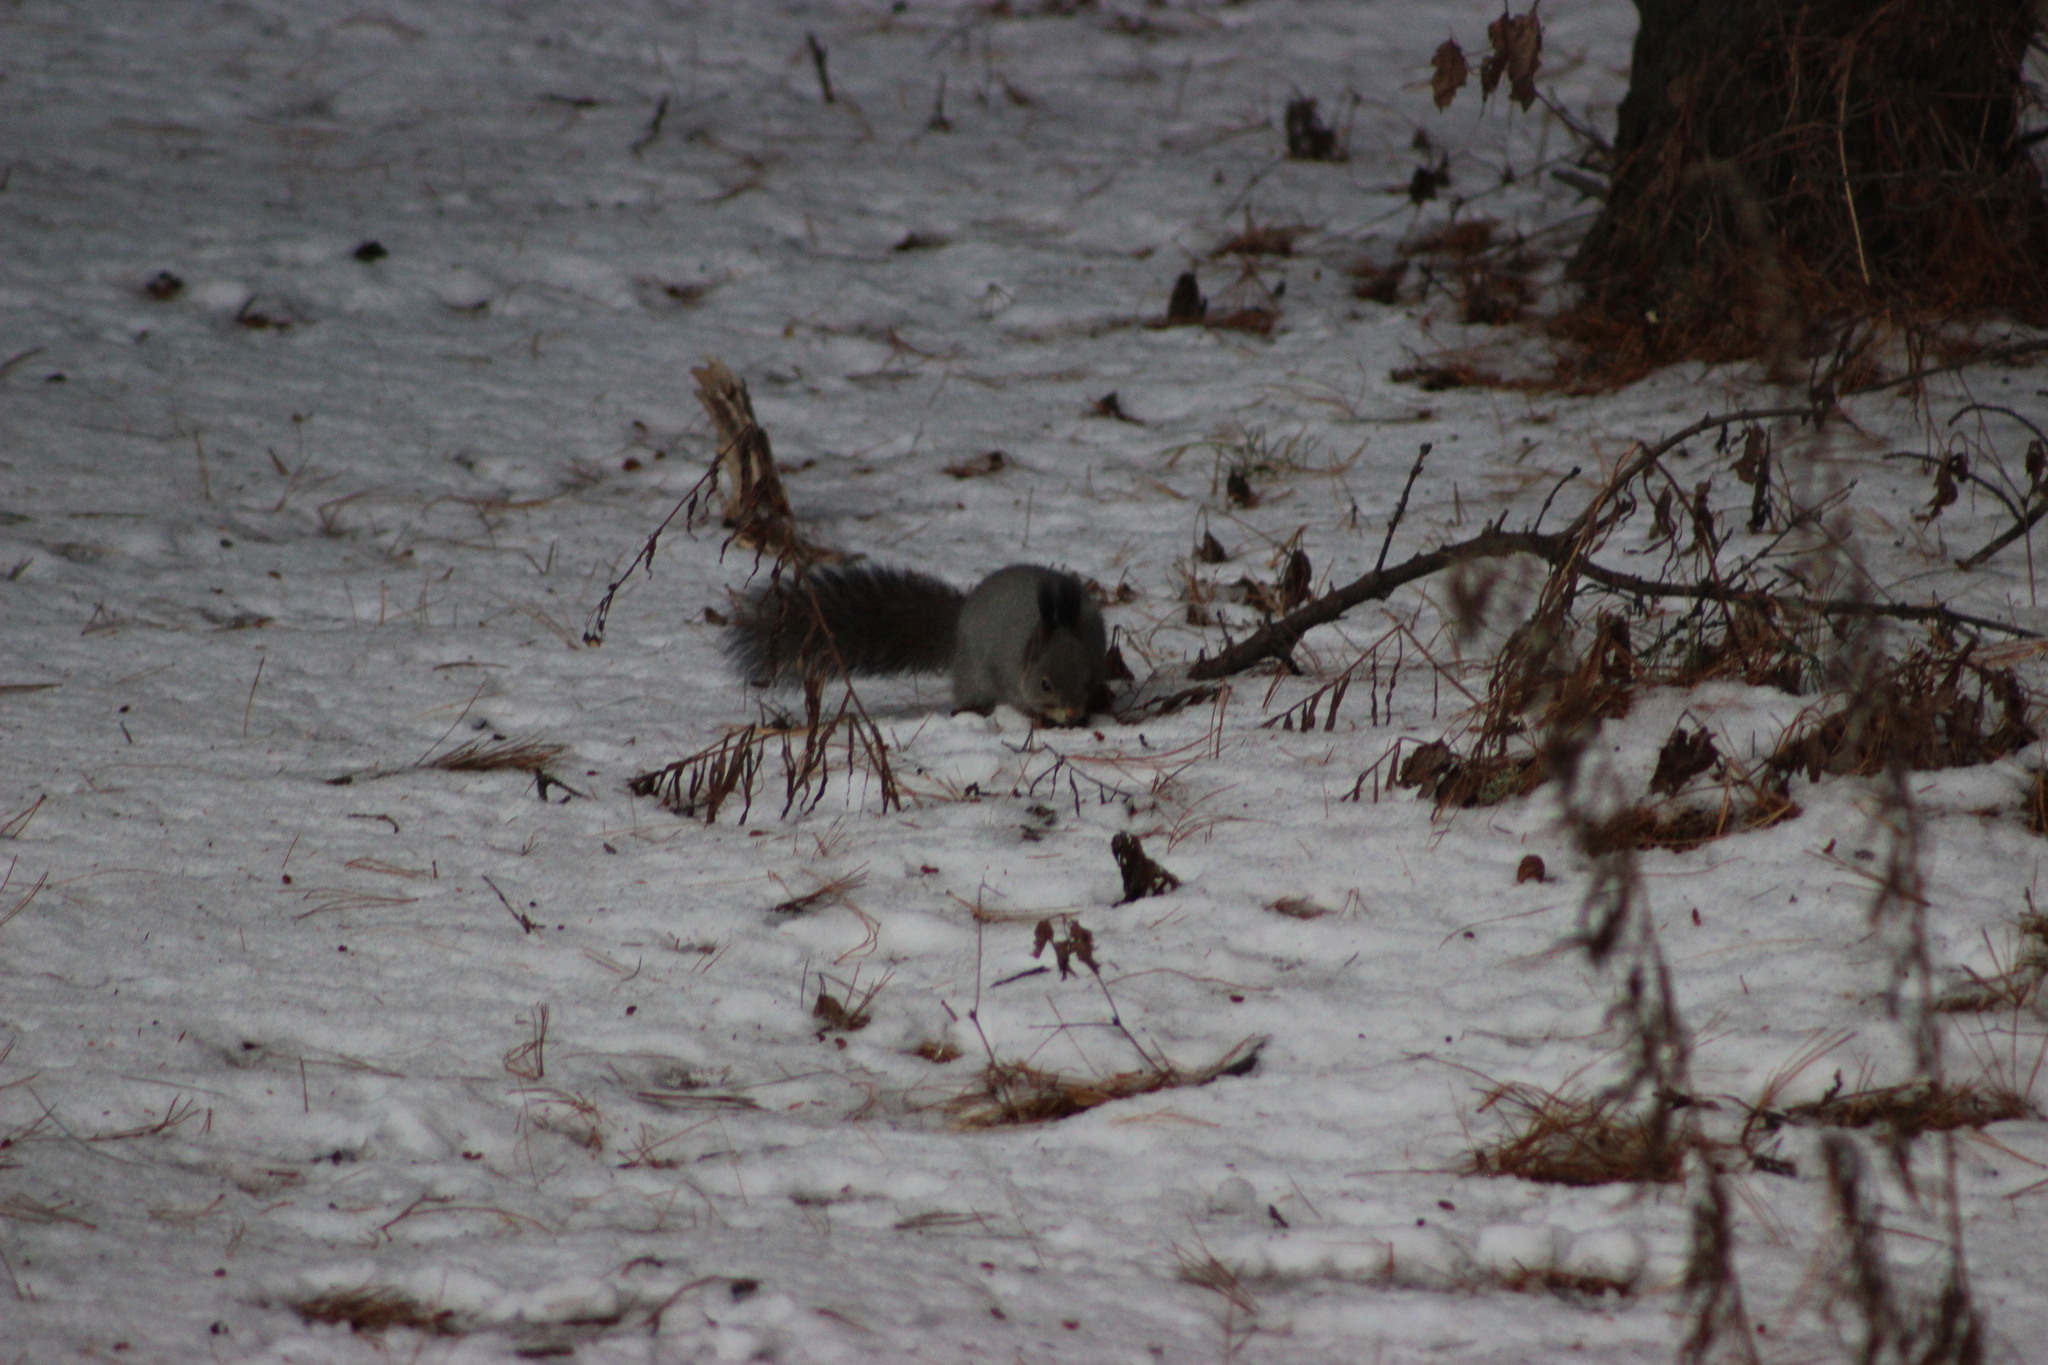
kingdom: Animalia
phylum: Chordata
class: Mammalia
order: Rodentia
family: Sciuridae
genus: Sciurus
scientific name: Sciurus vulgaris
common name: Eurasian red squirrel
